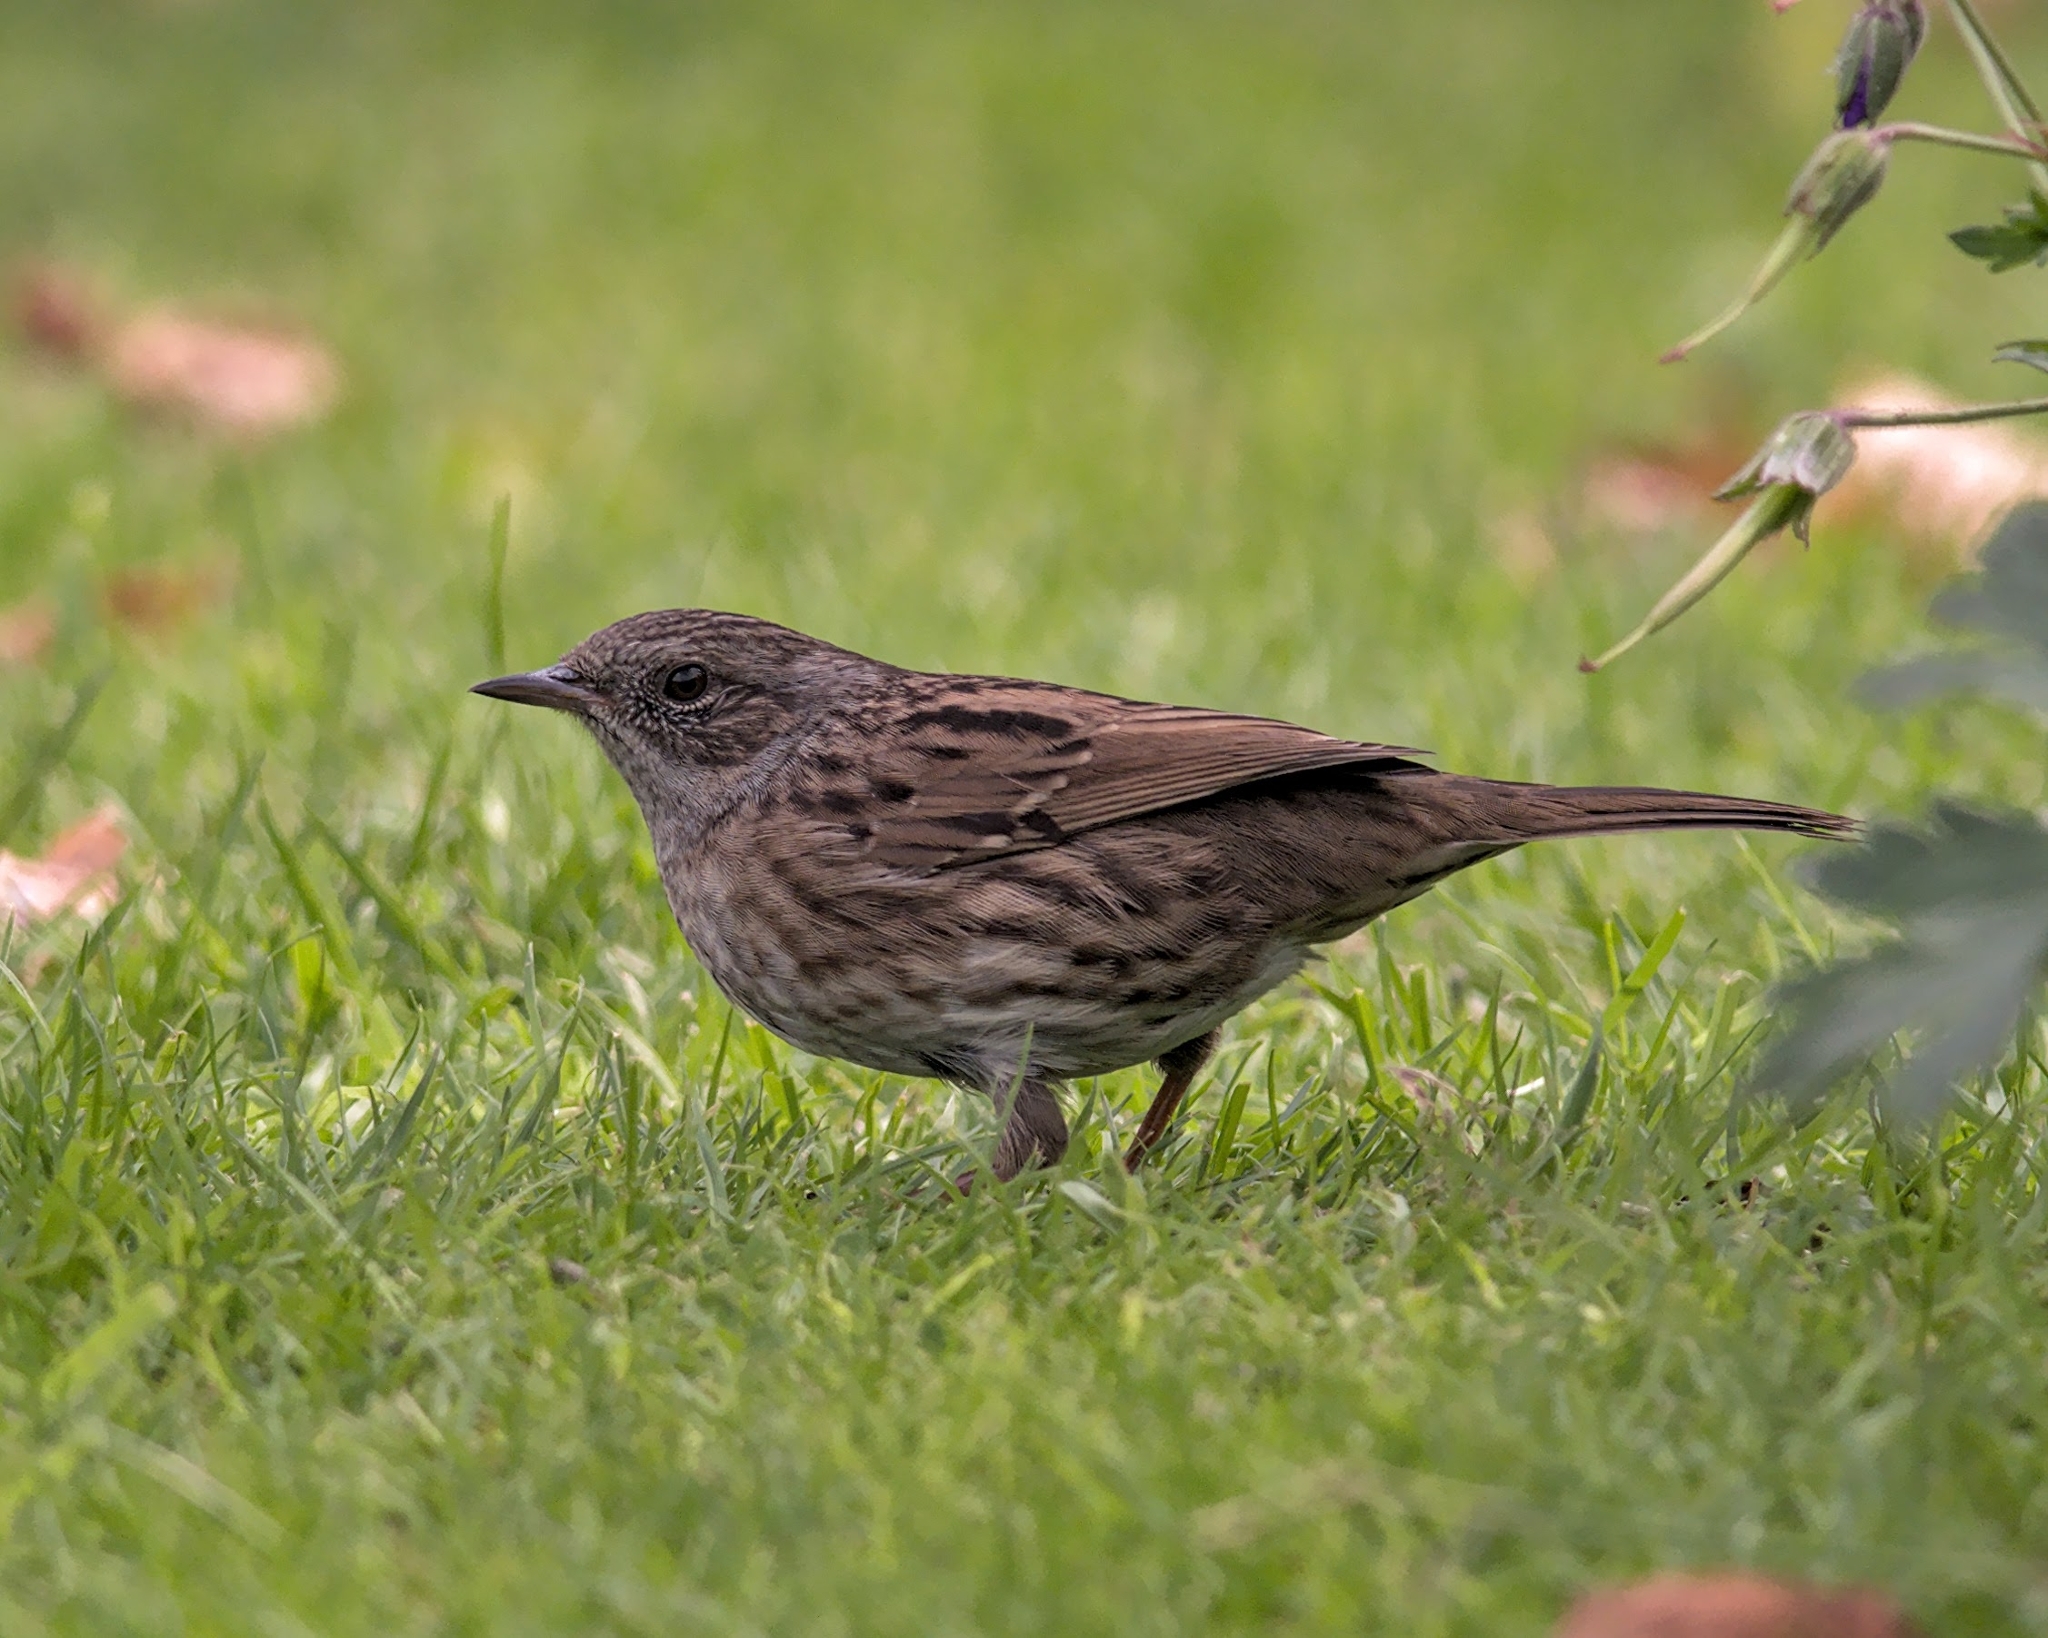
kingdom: Animalia
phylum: Chordata
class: Aves
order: Passeriformes
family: Prunellidae
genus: Prunella
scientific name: Prunella modularis
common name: Dunnock
